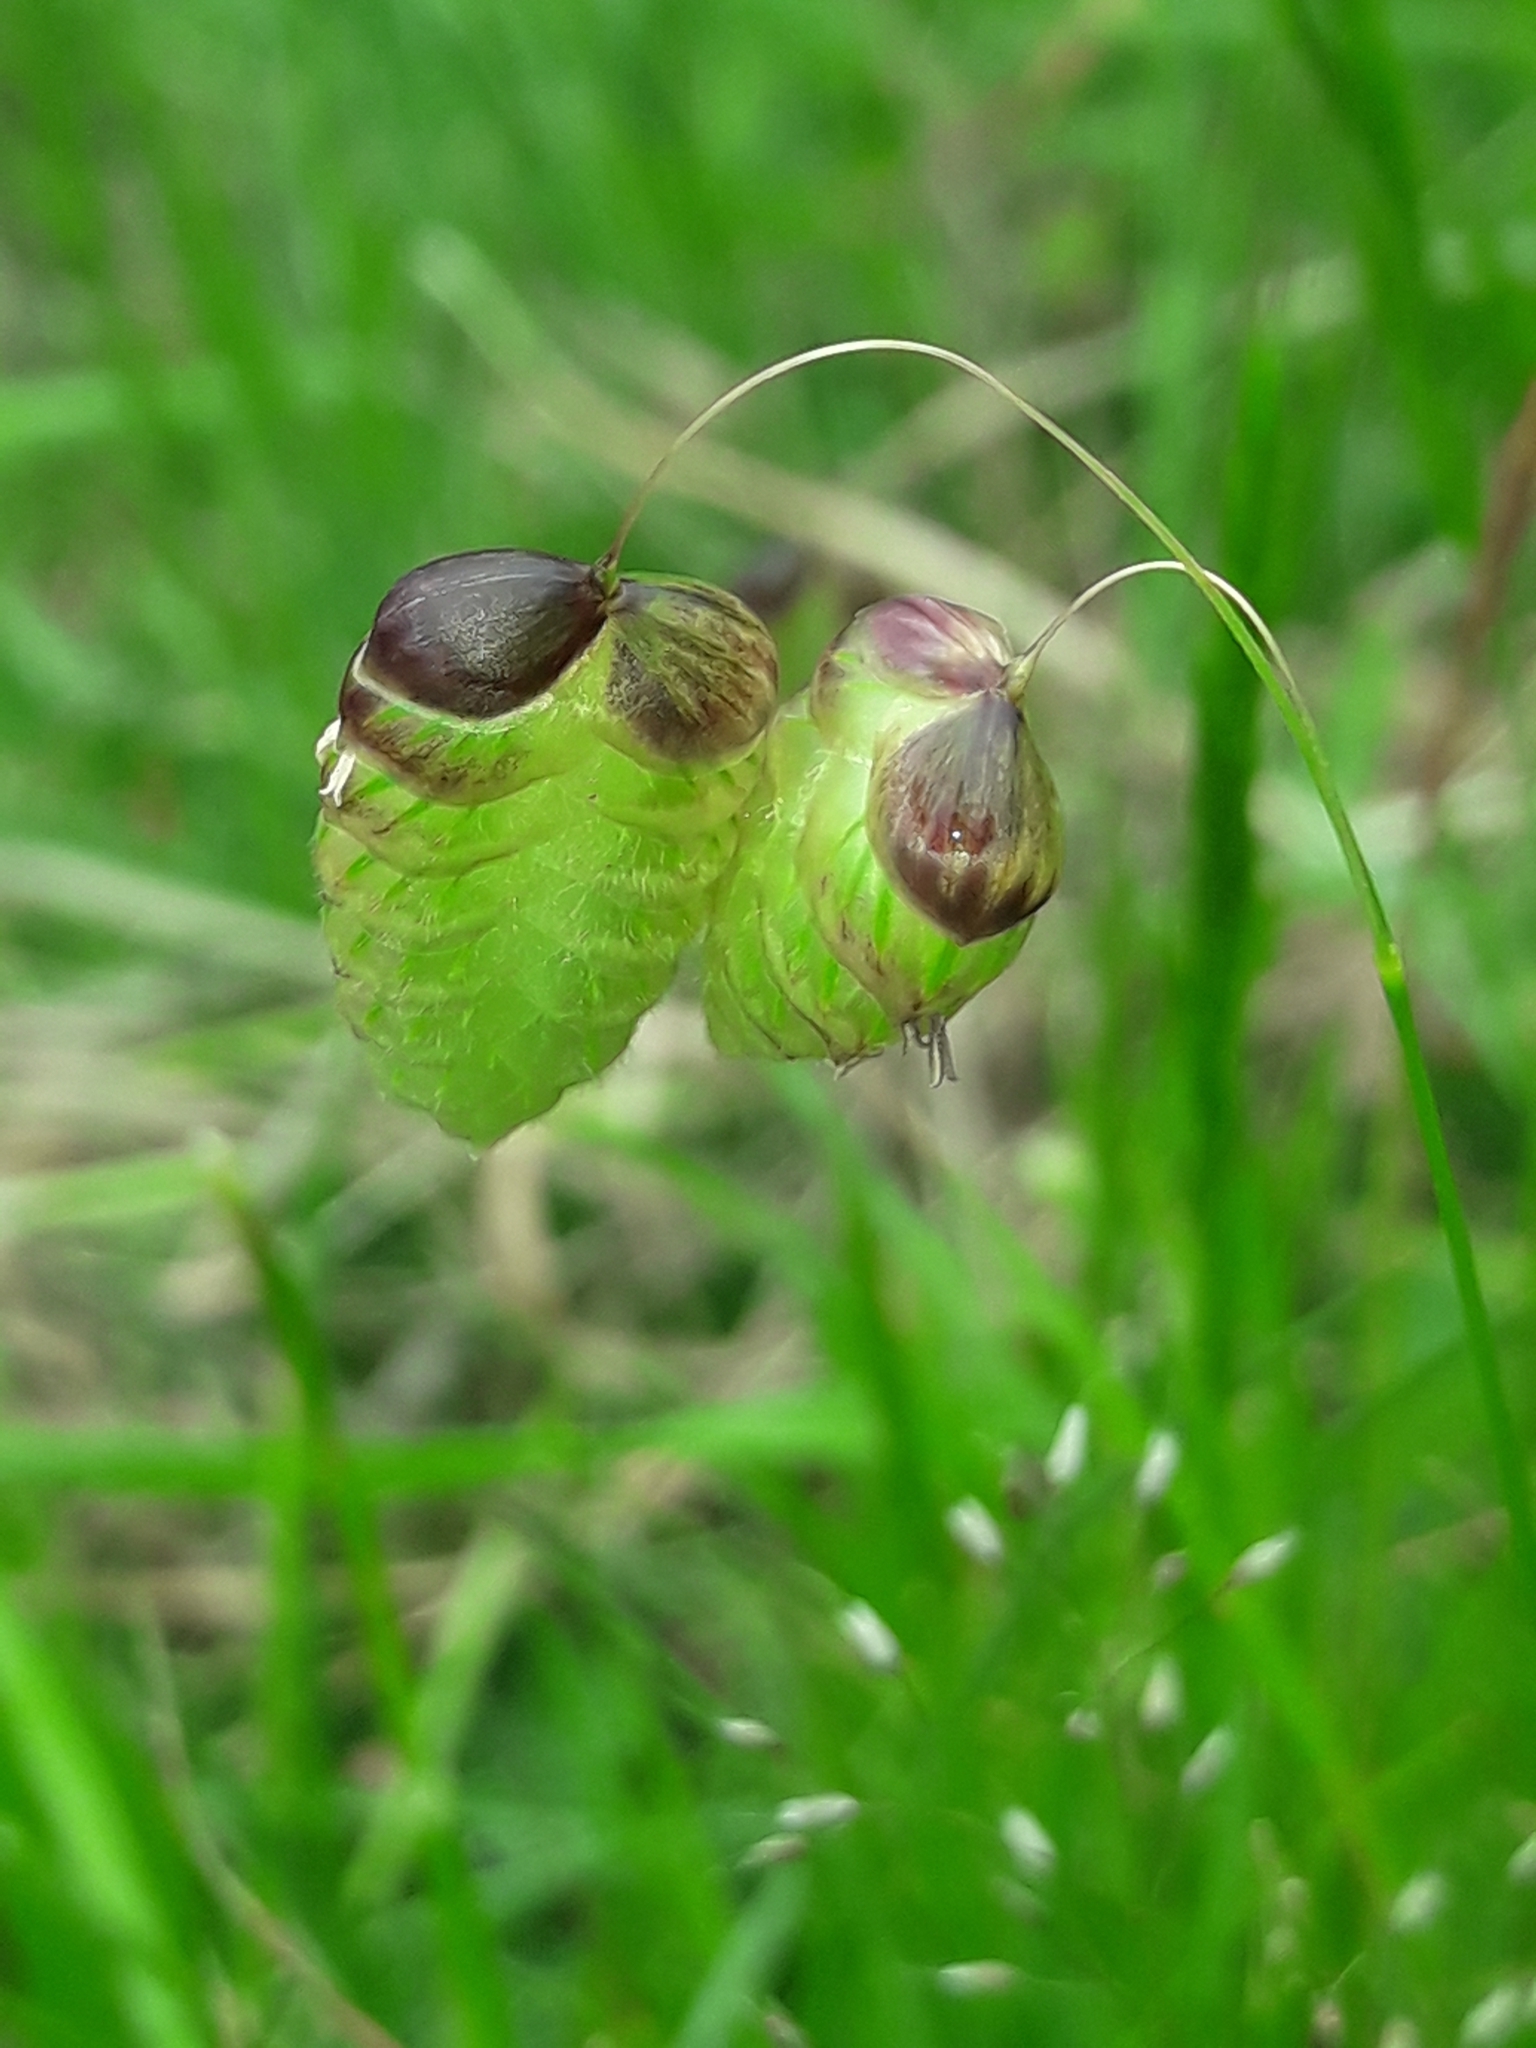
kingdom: Plantae
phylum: Tracheophyta
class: Liliopsida
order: Poales
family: Poaceae
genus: Briza
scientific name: Briza maxima
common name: Big quakinggrass
